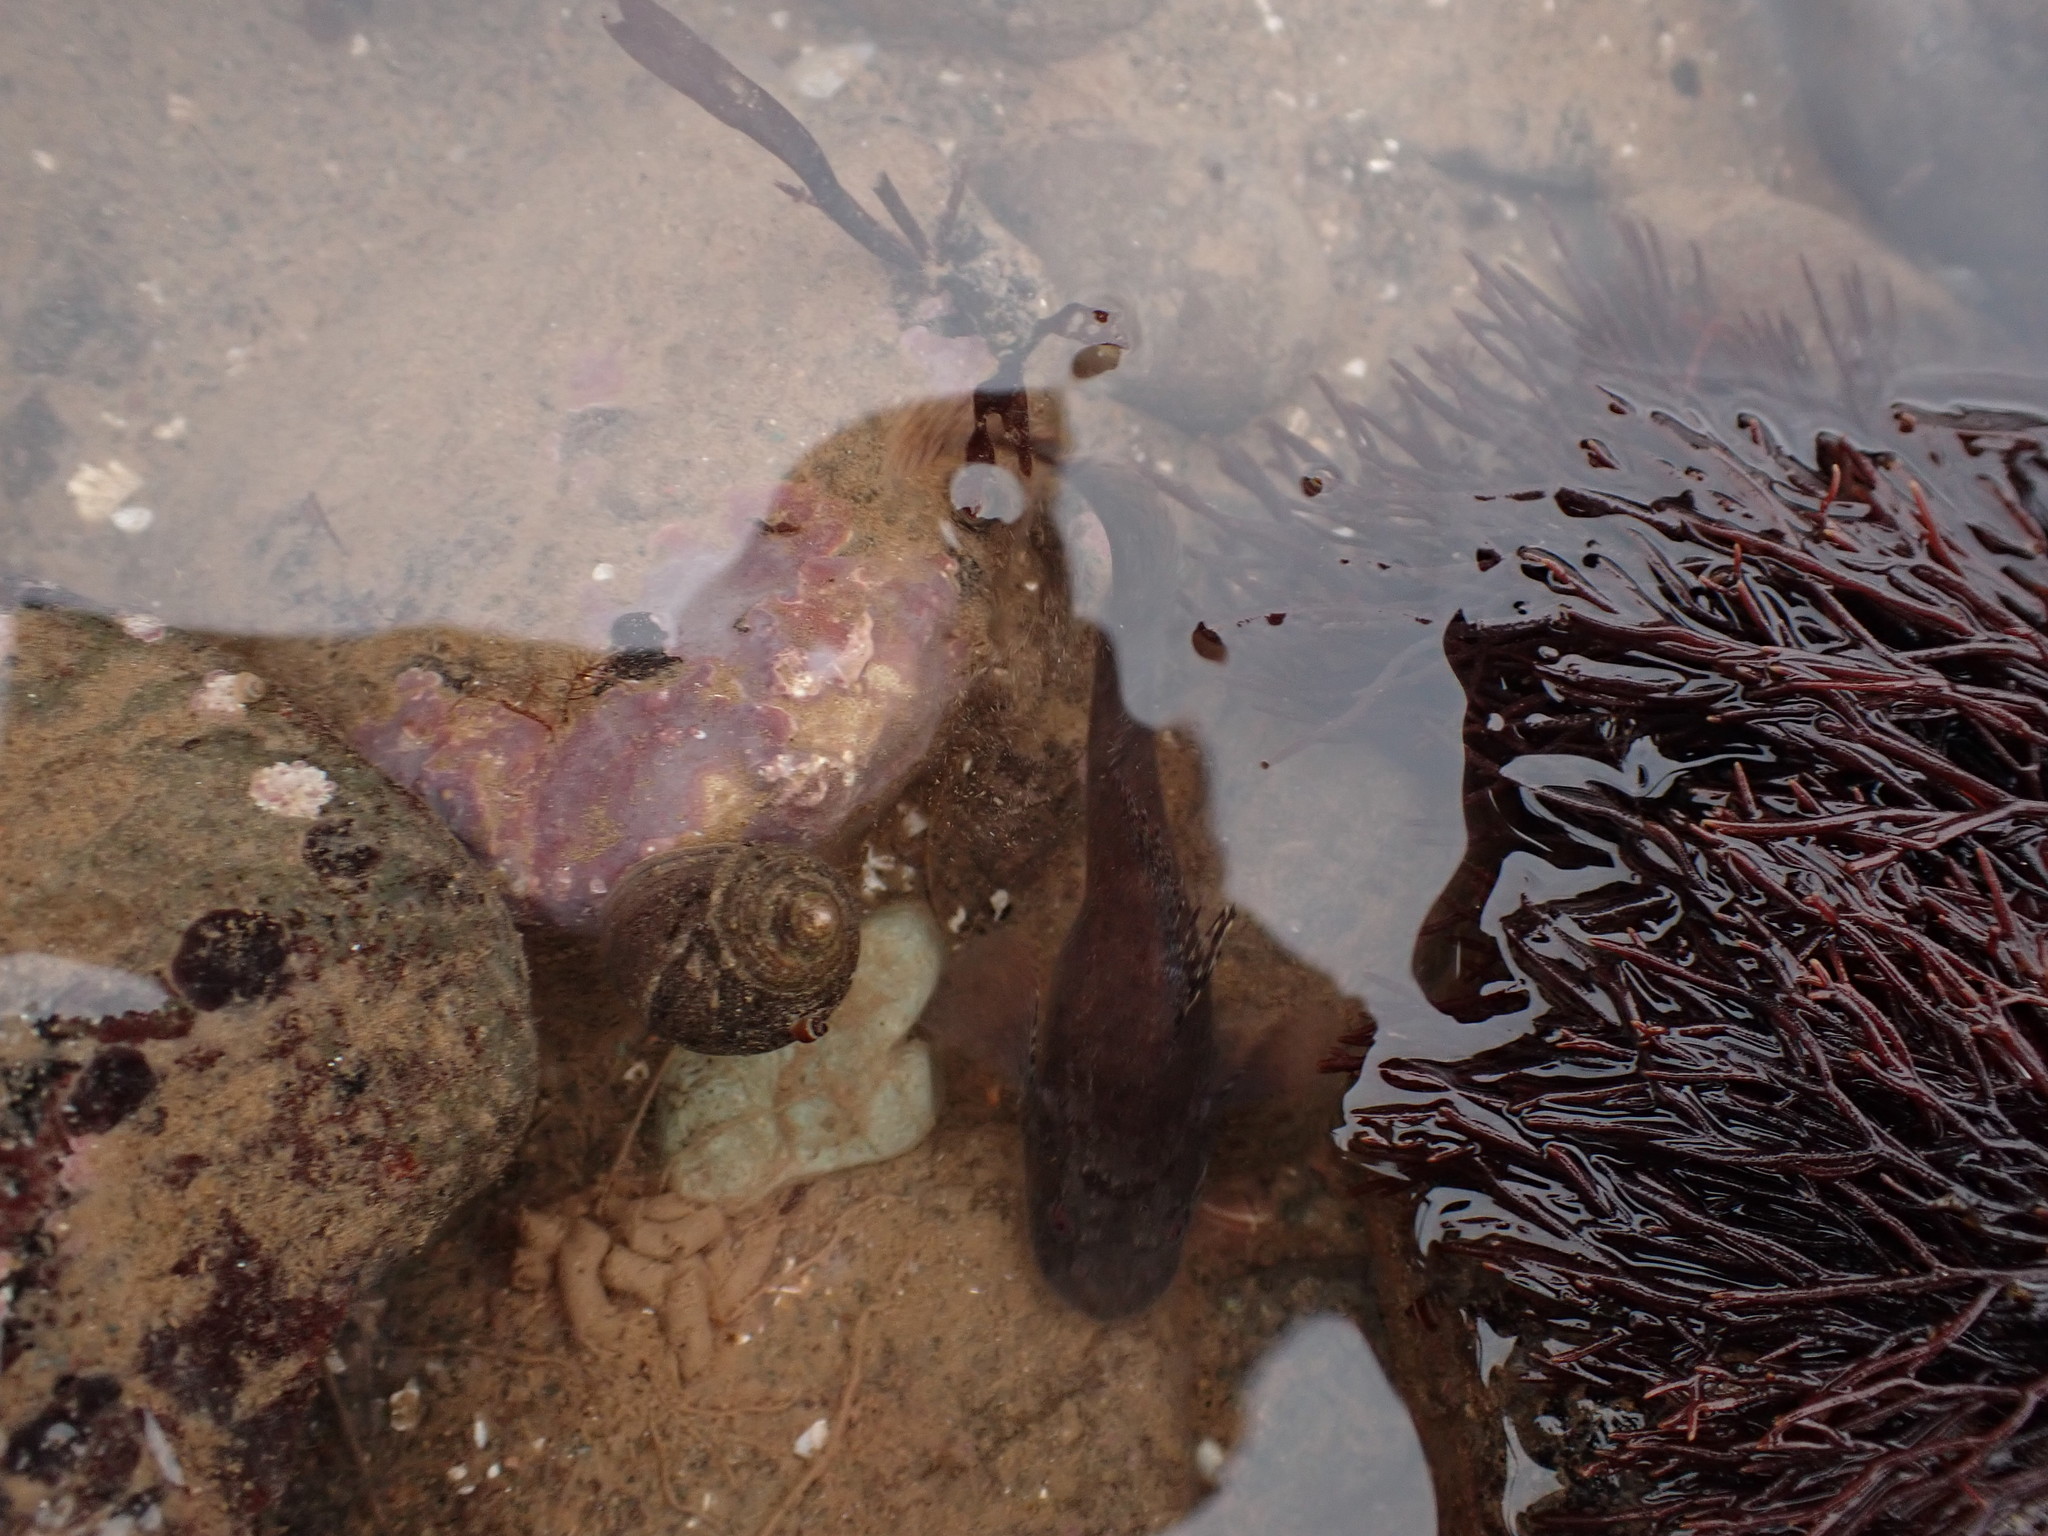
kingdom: Animalia
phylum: Chordata
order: Scorpaeniformes
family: Liparidae
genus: Liparis
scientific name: Liparis atlanticus
